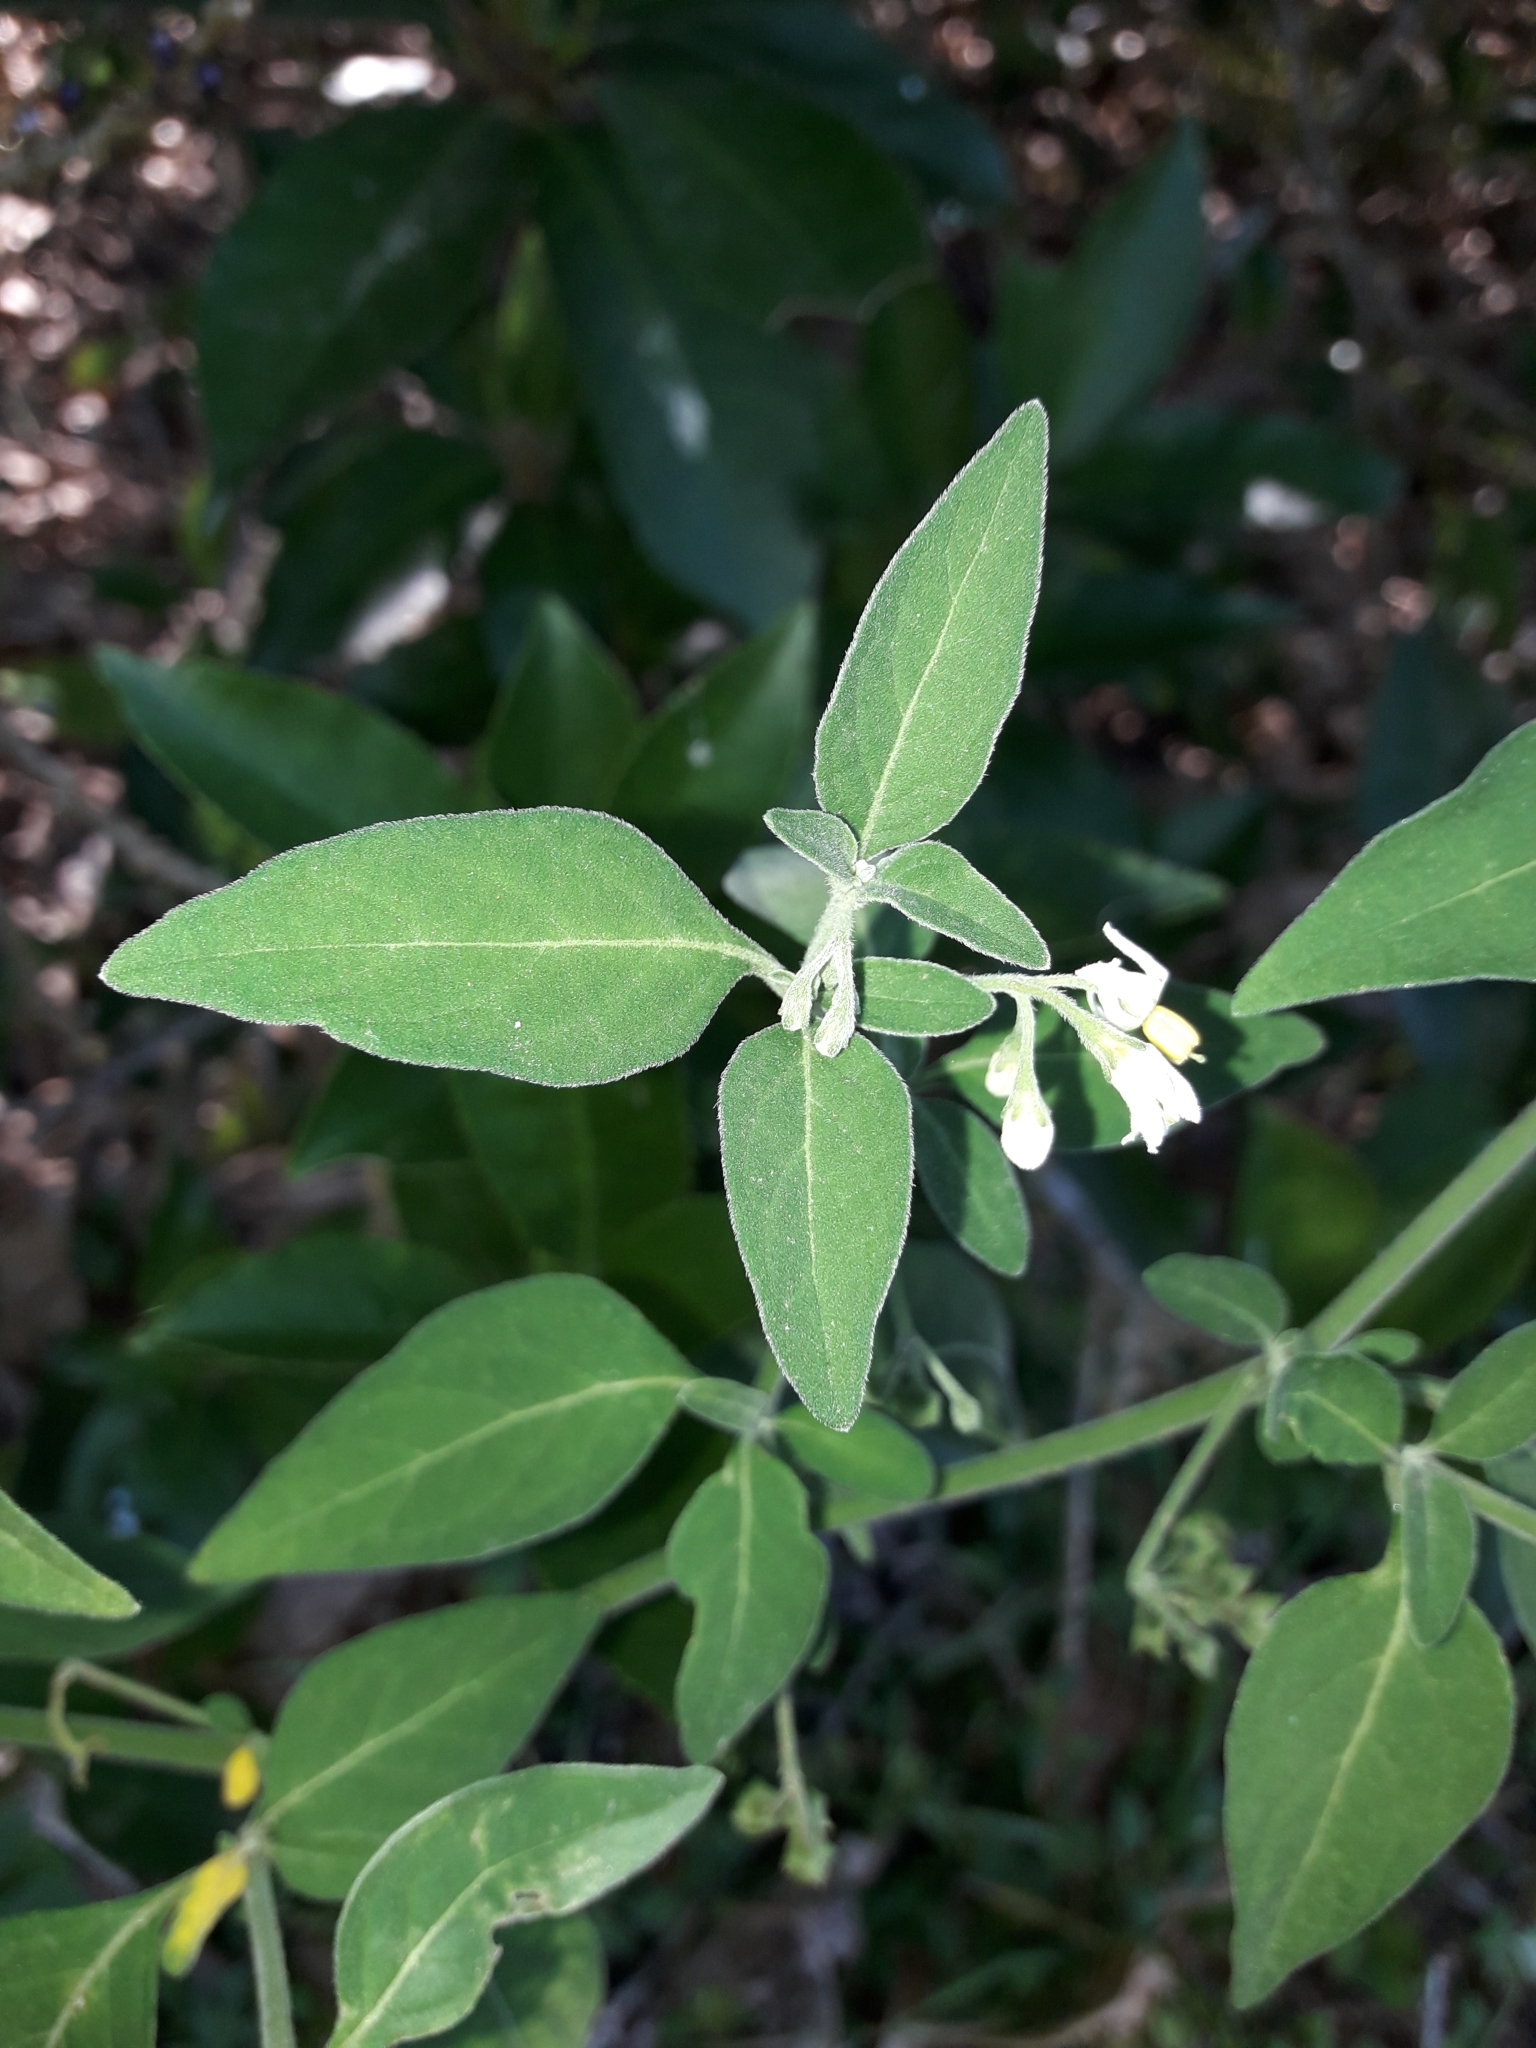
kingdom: Plantae
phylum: Tracheophyta
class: Magnoliopsida
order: Solanales
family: Solanaceae
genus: Solanum
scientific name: Solanum chenopodioides
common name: Tall nightshade
